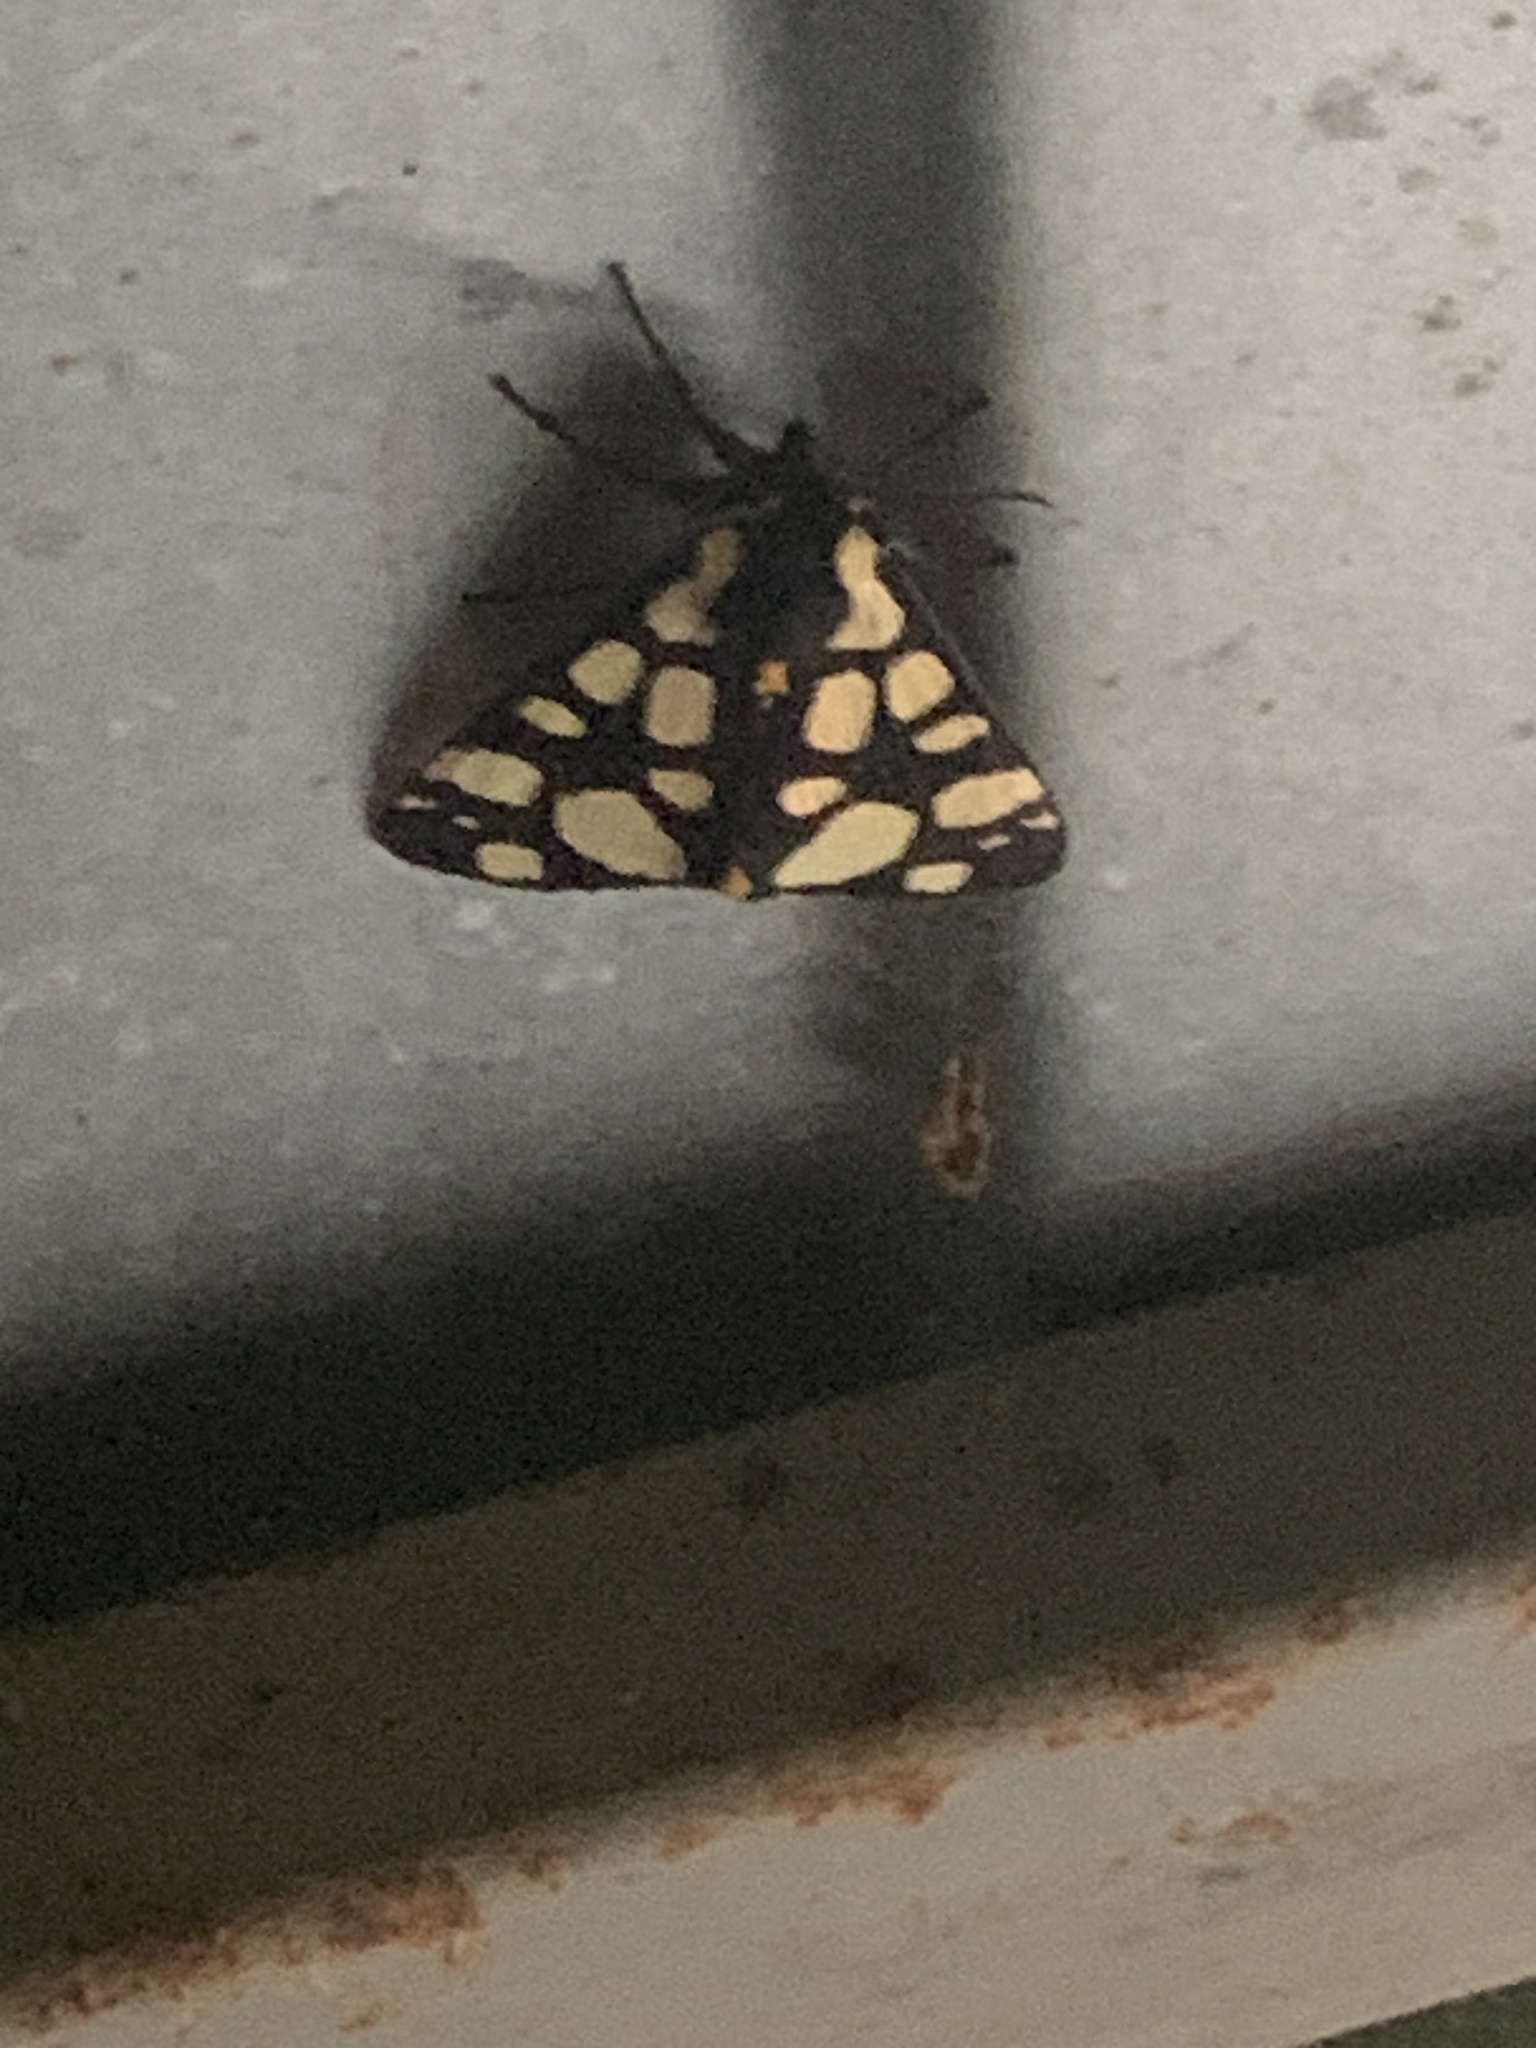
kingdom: Animalia
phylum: Arthropoda
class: Insecta
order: Lepidoptera
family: Erebidae
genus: Epicallia
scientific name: Epicallia villica
